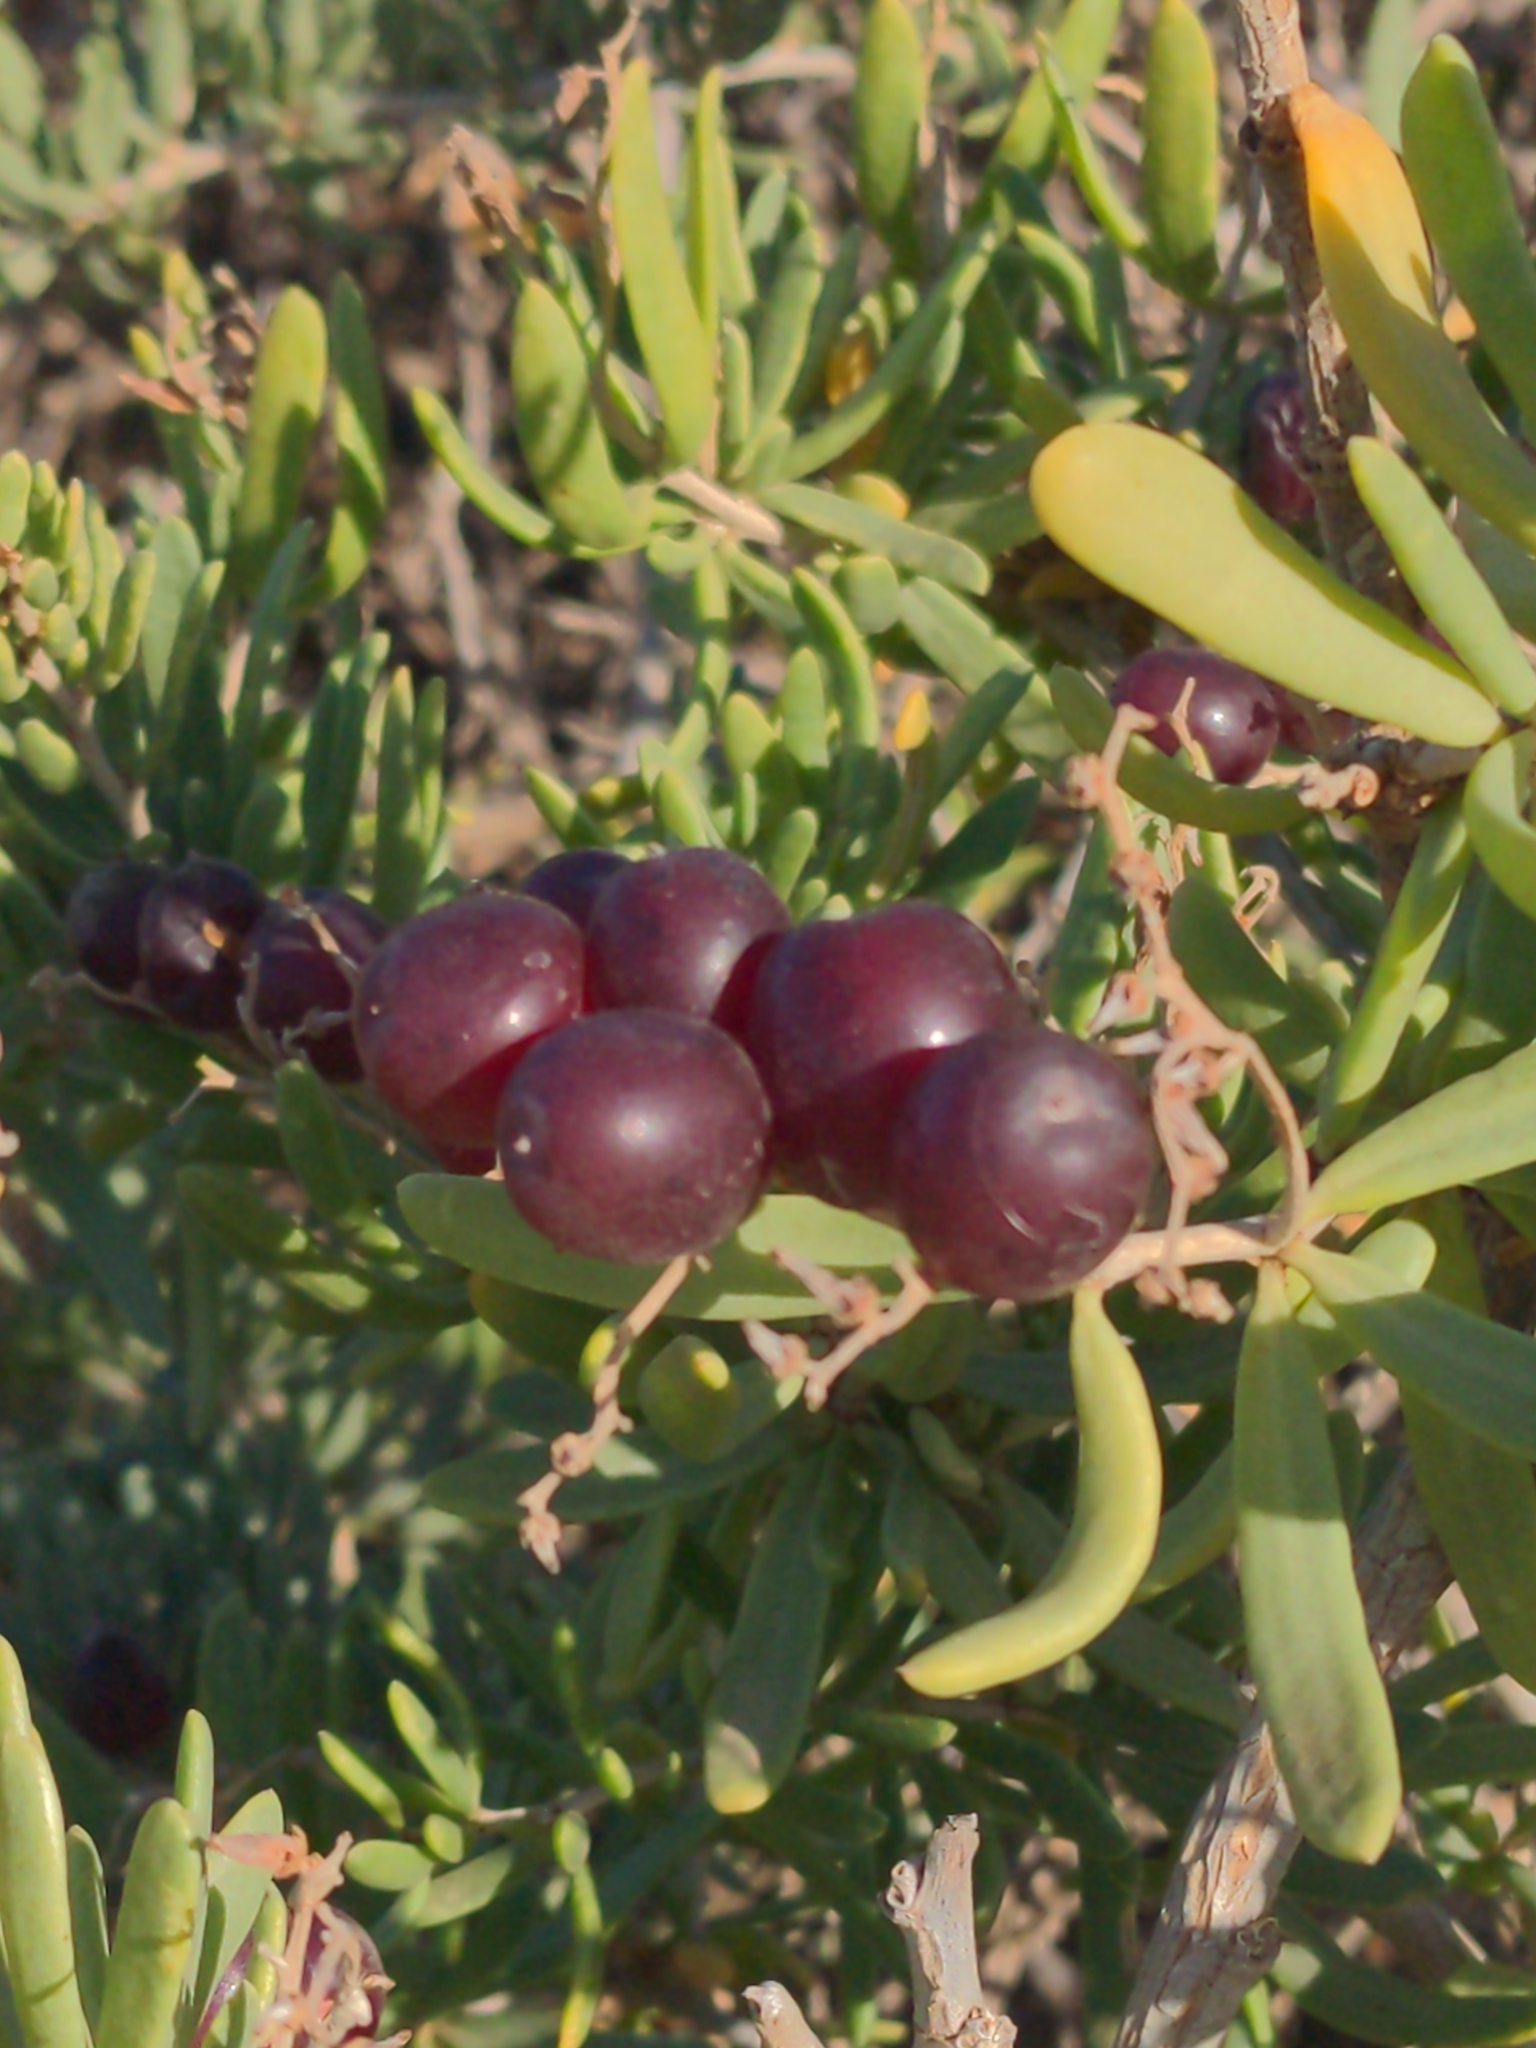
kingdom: Plantae
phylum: Tracheophyta
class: Magnoliopsida
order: Sapindales
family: Nitrariaceae
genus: Nitraria
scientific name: Nitraria billardierei
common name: Dillonbush
